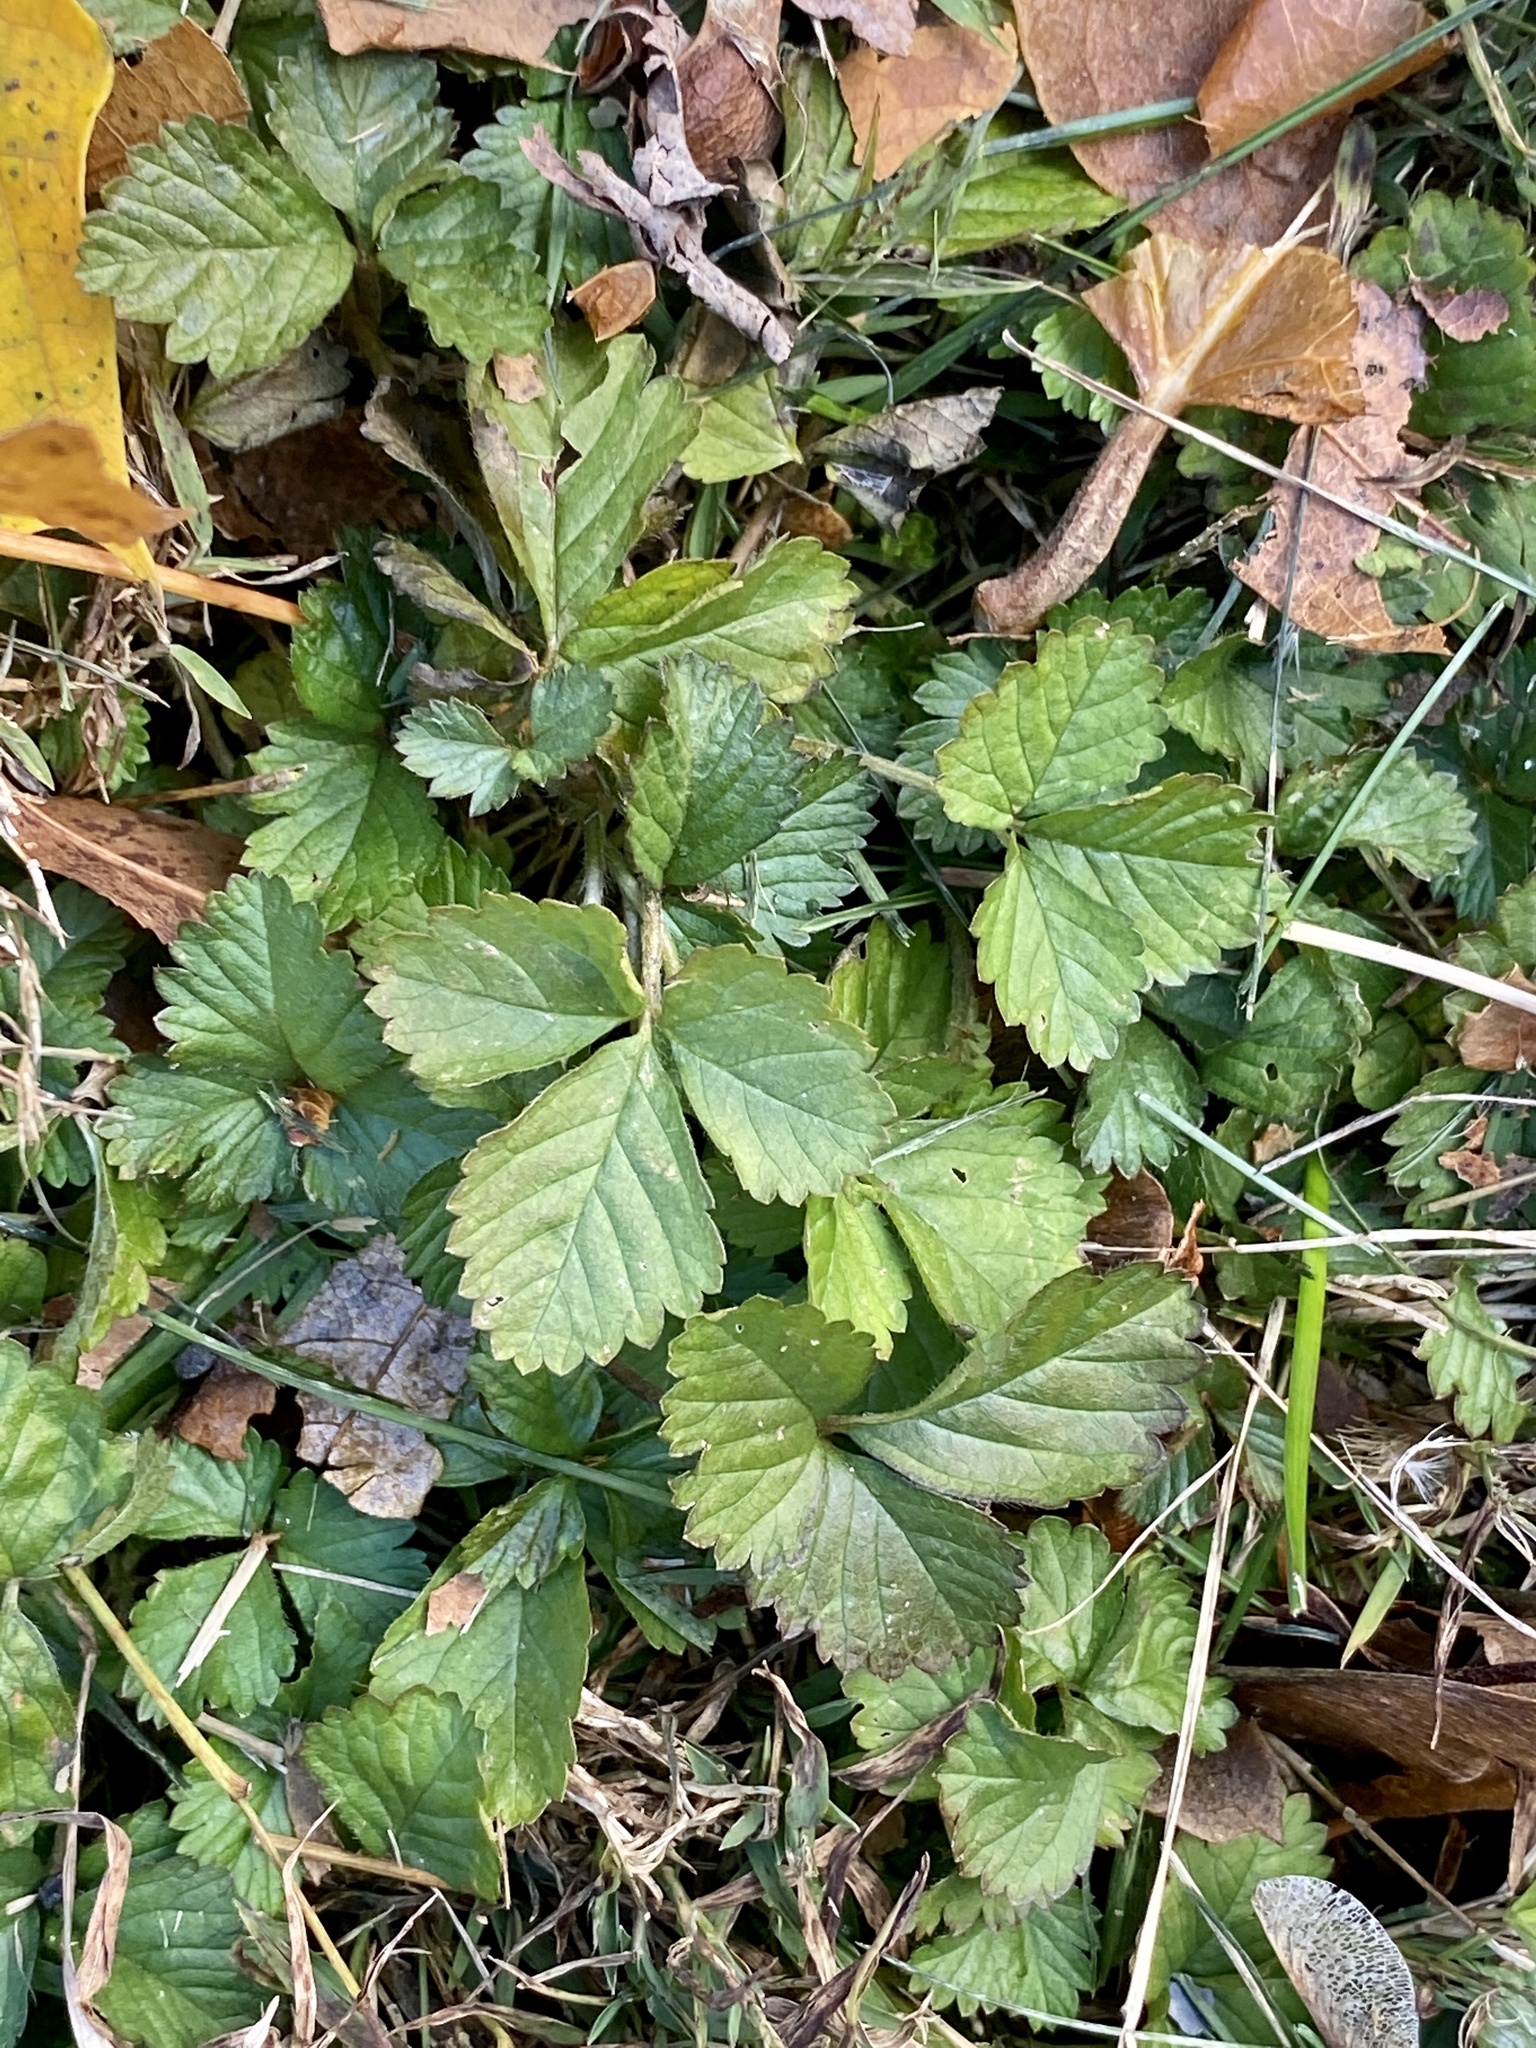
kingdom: Plantae
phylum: Tracheophyta
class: Magnoliopsida
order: Rosales
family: Rosaceae
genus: Potentilla
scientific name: Potentilla indica
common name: Yellow-flowered strawberry
